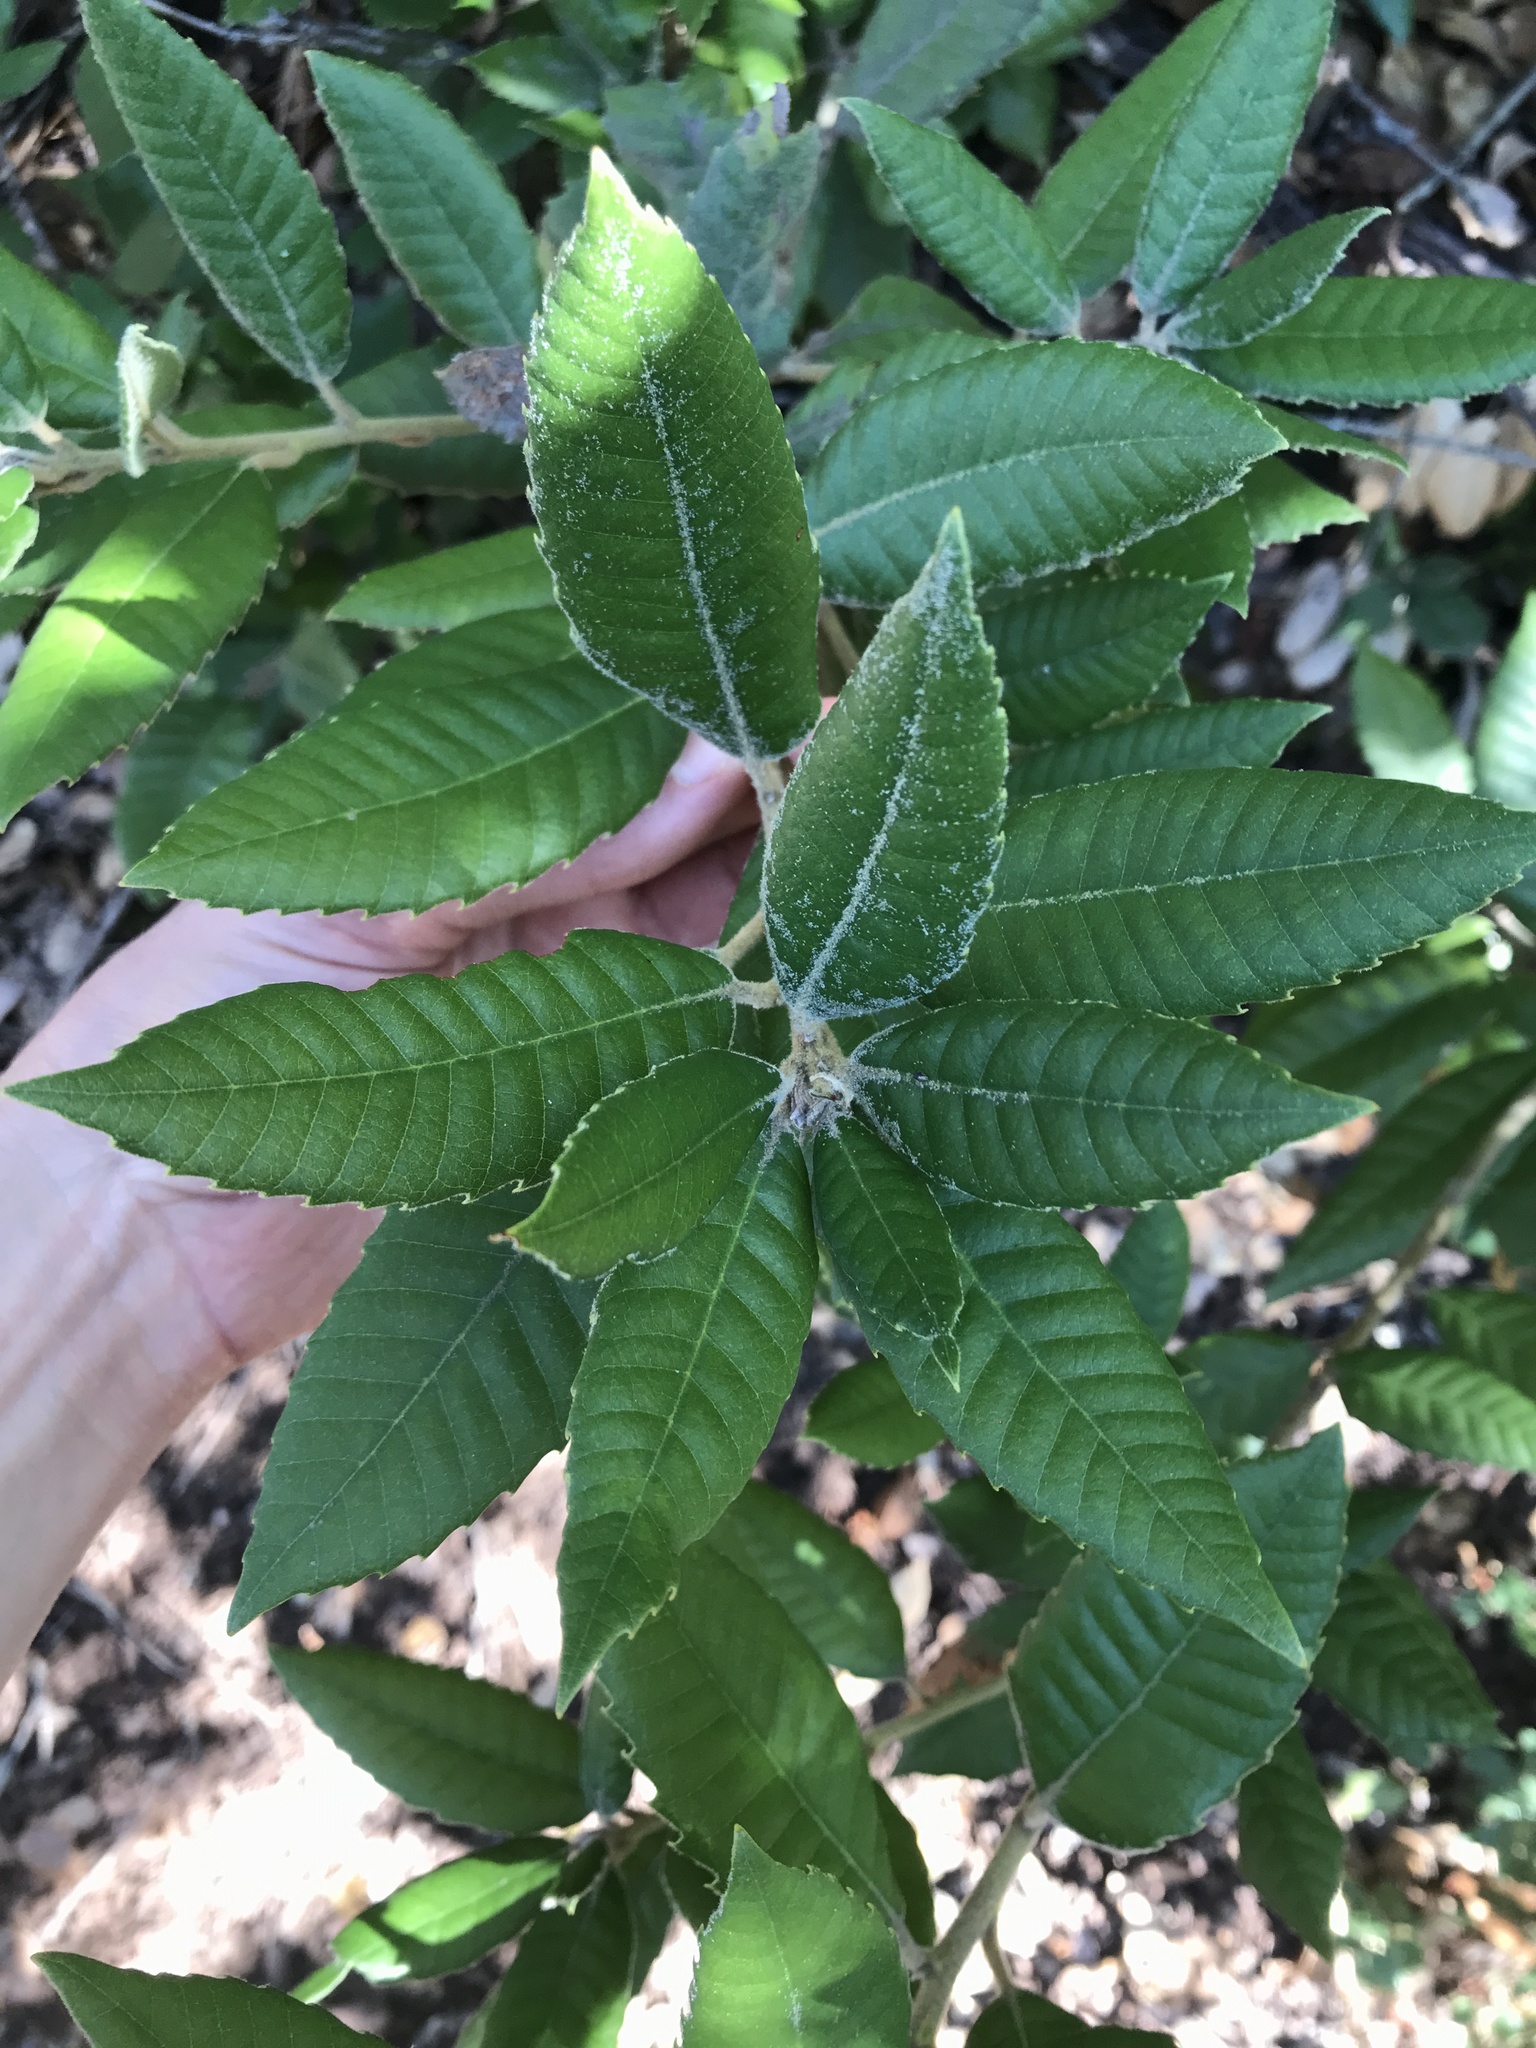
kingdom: Plantae
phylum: Tracheophyta
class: Magnoliopsida
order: Fagales
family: Fagaceae
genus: Notholithocarpus
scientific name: Notholithocarpus densiflorus
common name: Tan bark oak
